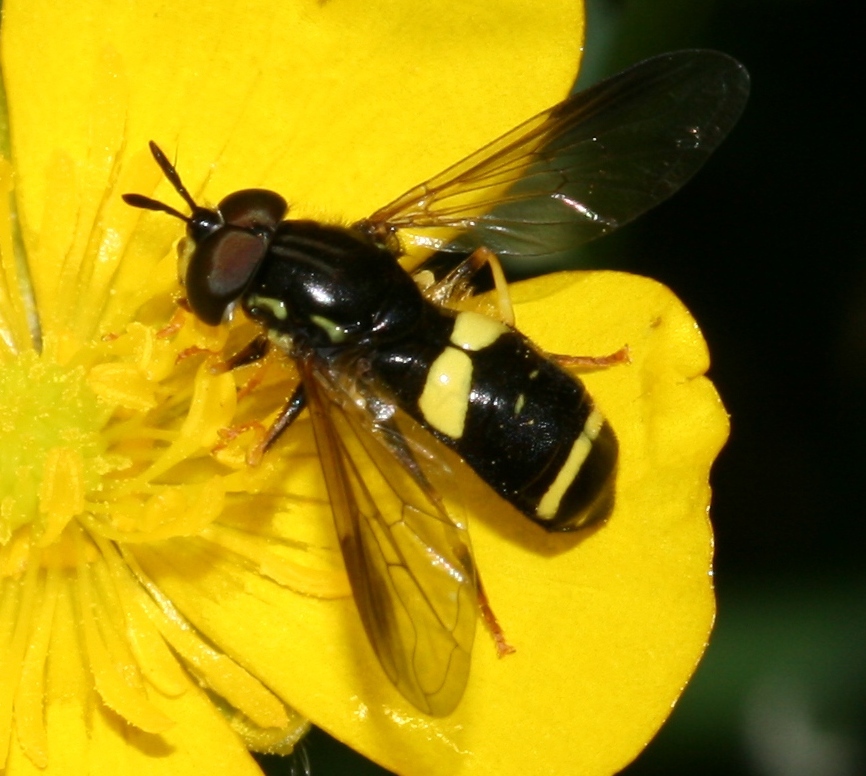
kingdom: Animalia
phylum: Arthropoda
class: Insecta
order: Diptera
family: Syrphidae
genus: Chrysotoxum
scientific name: Chrysotoxum bicincta
